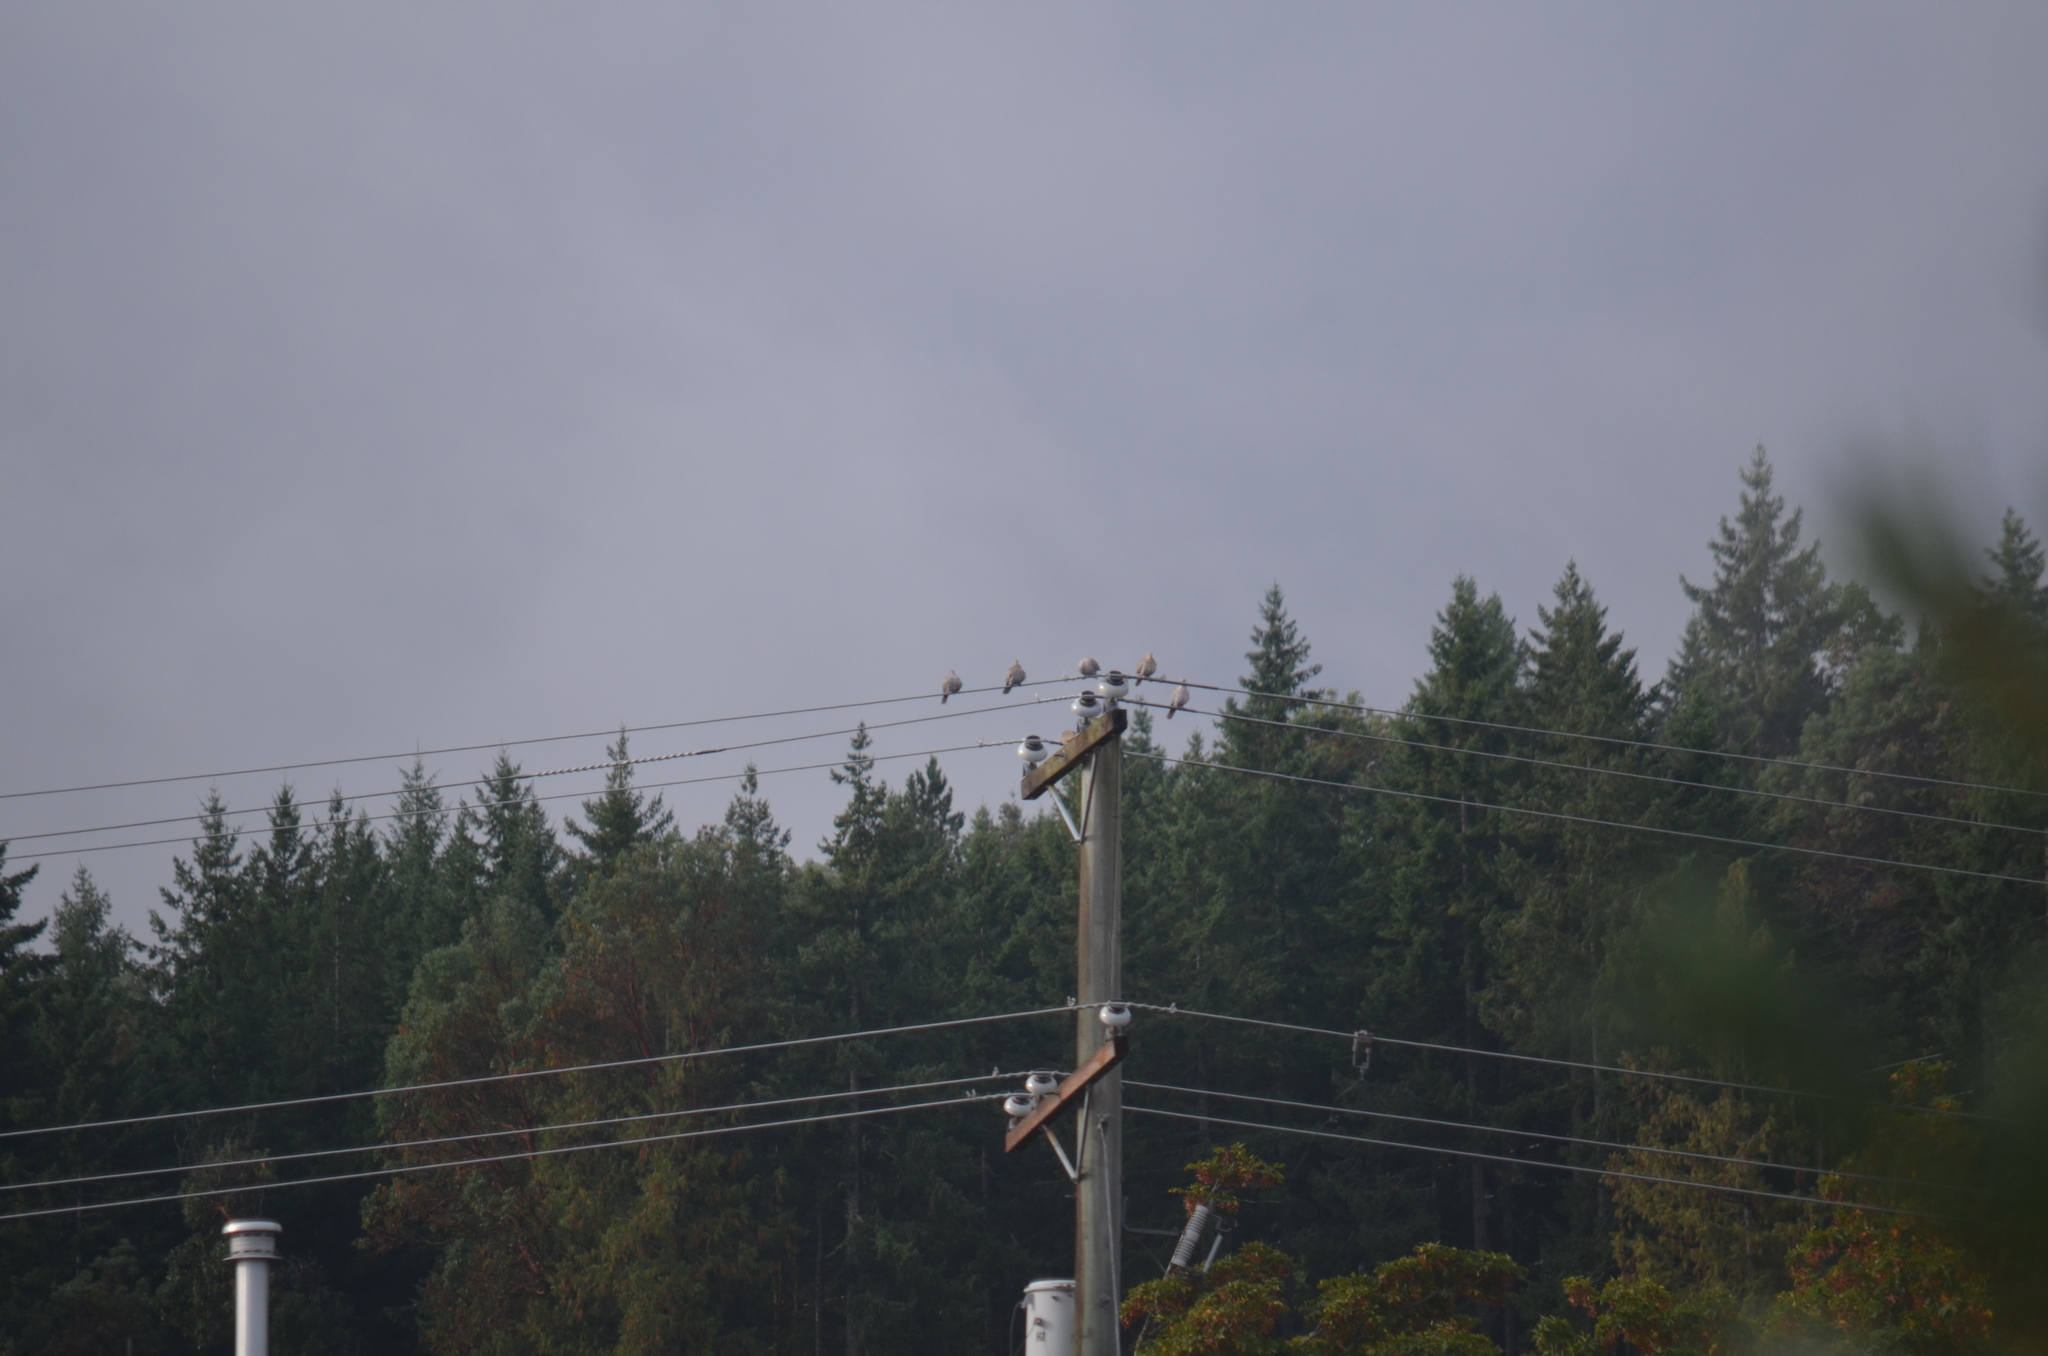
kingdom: Animalia
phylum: Chordata
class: Aves
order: Columbiformes
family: Columbidae
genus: Streptopelia
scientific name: Streptopelia decaocto
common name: Eurasian collared dove
